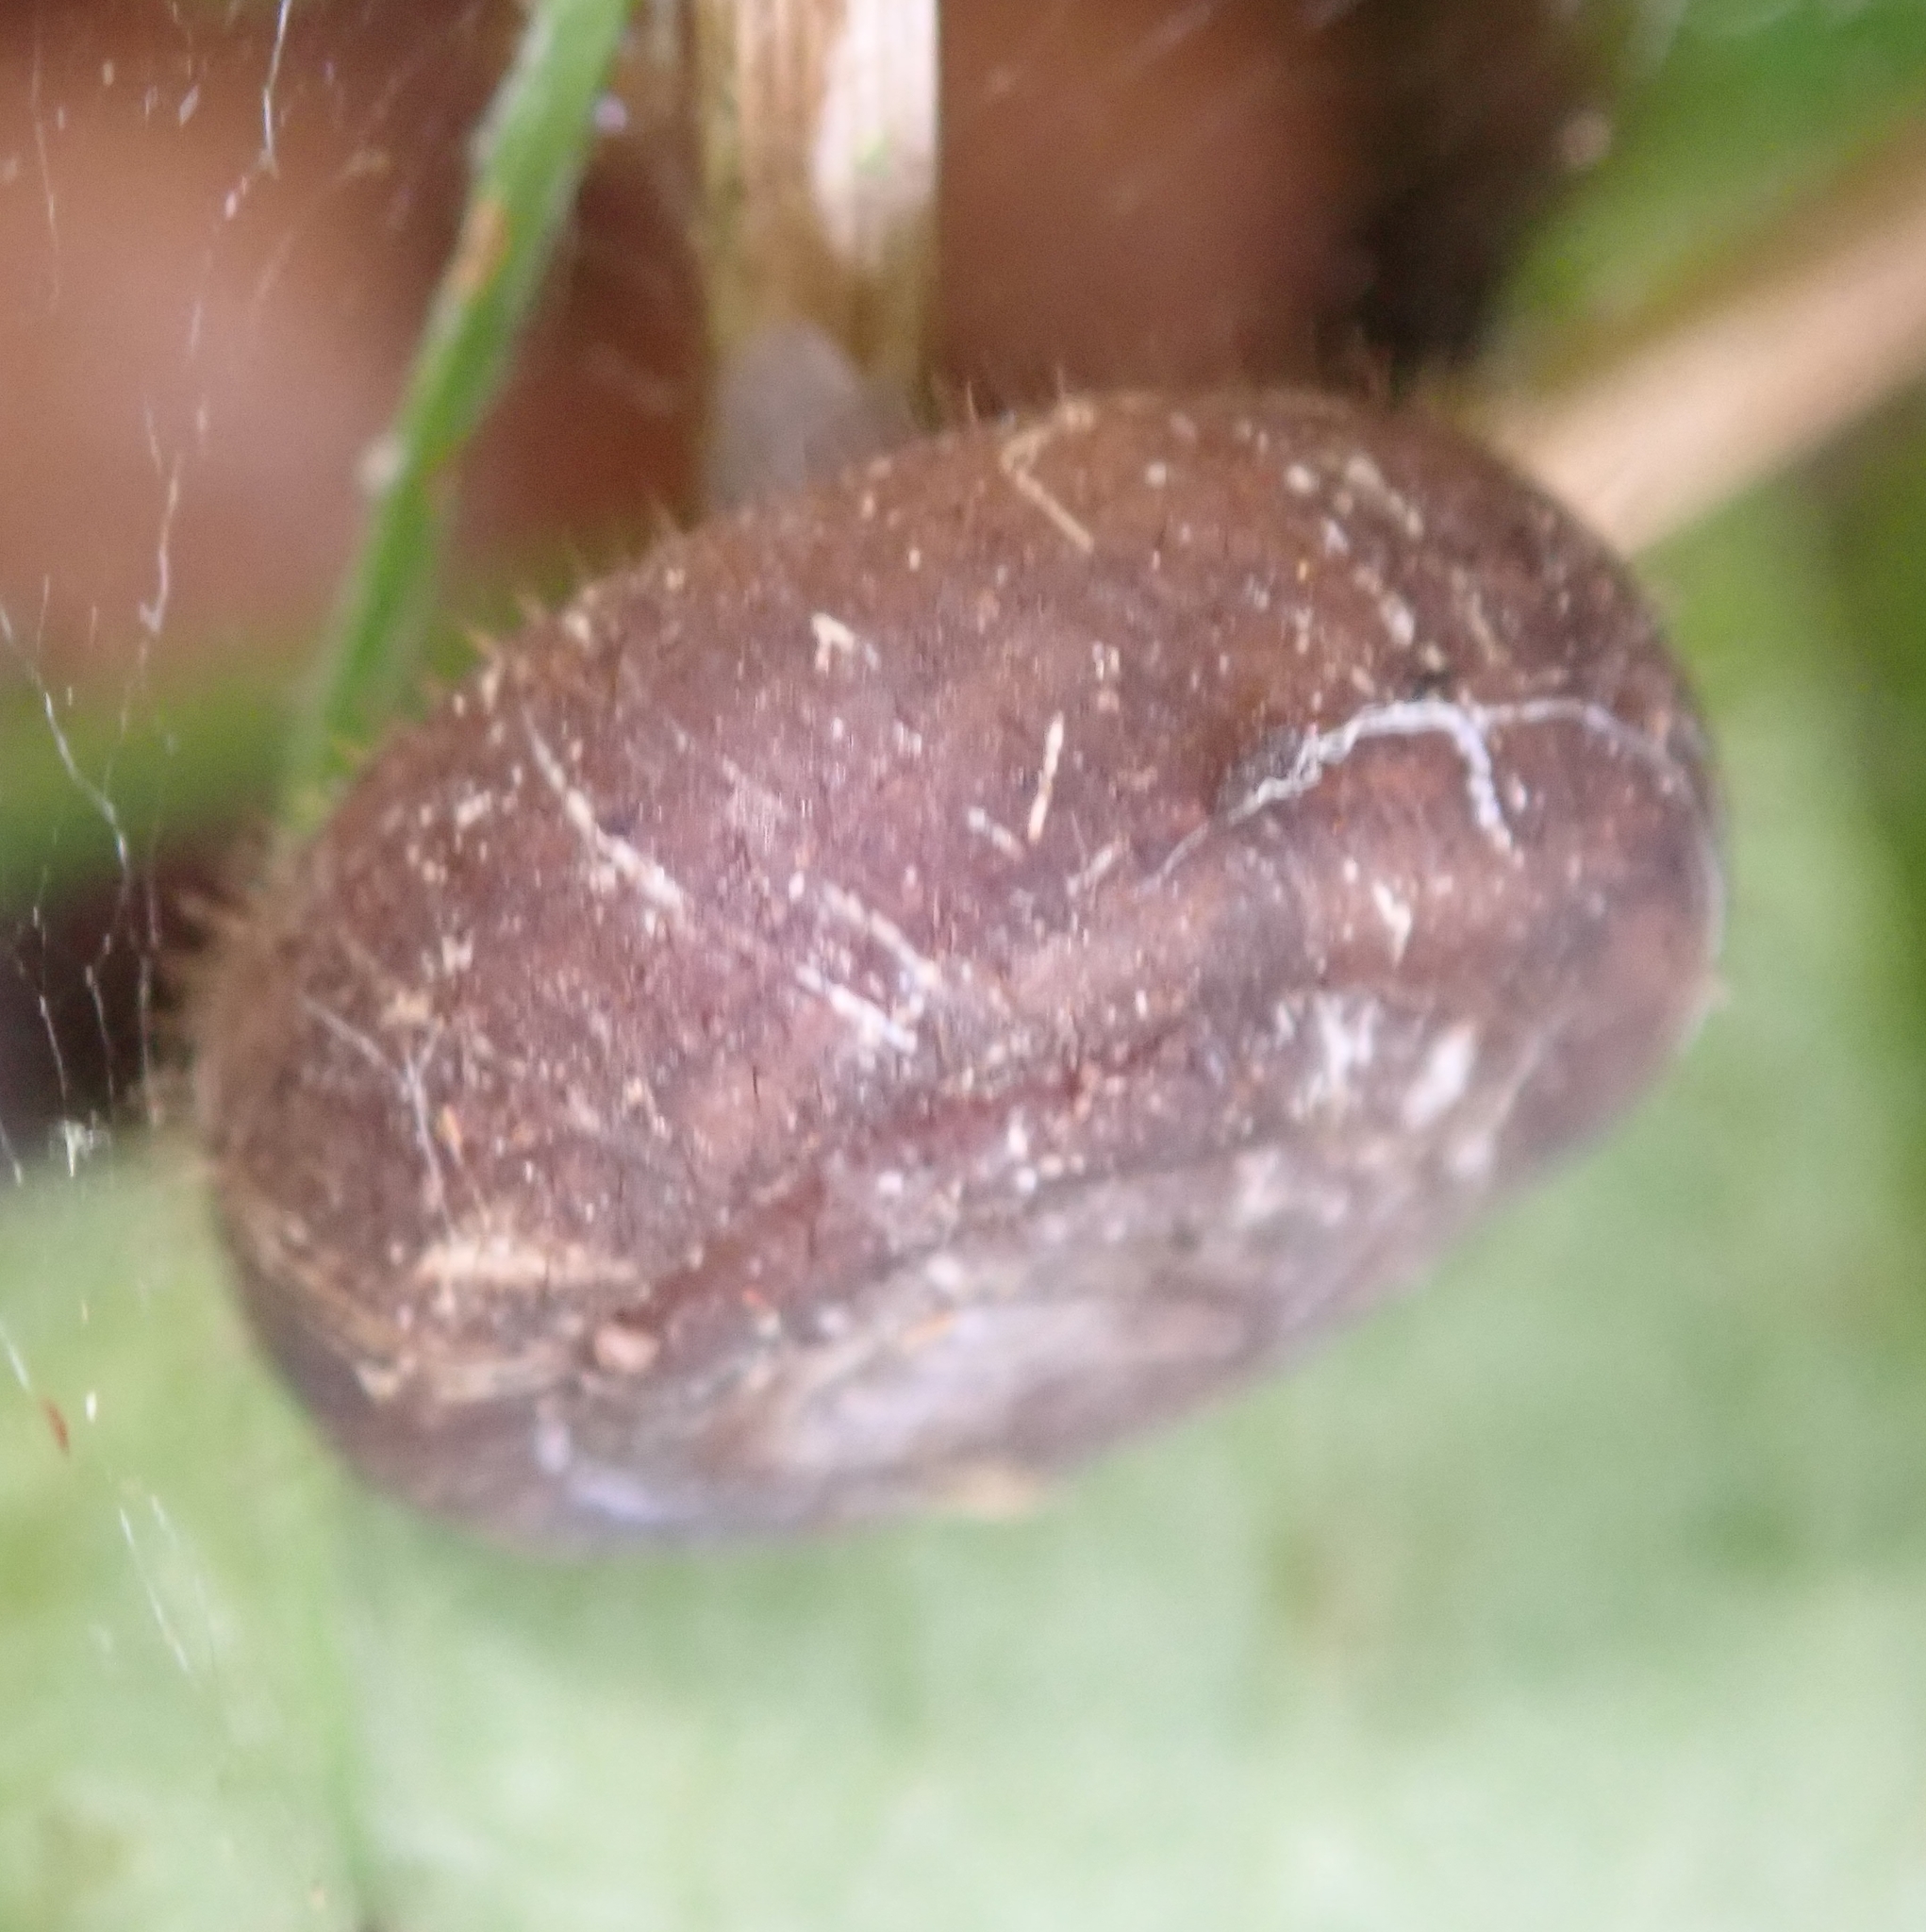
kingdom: Animalia
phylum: Mollusca
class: Gastropoda
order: Stylommatophora
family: Helicodontidae
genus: Helicodonta
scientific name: Helicodonta obvoluta
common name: Cheese snail
